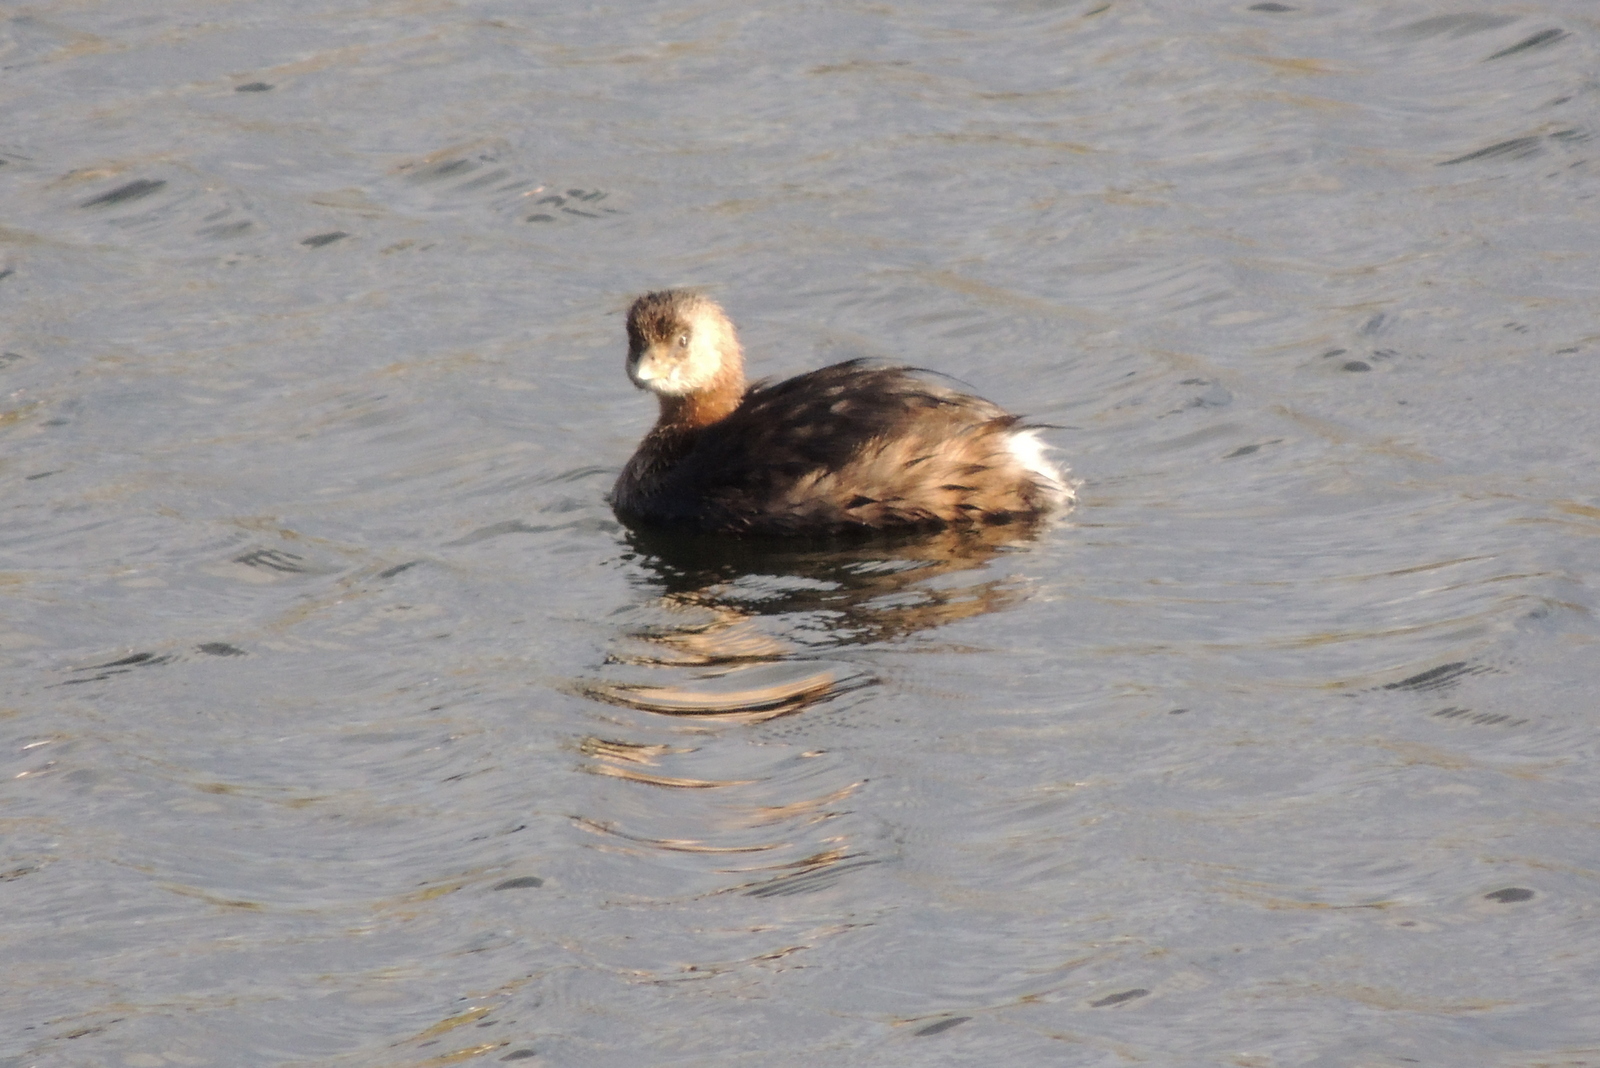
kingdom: Animalia
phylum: Chordata
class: Aves
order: Podicipediformes
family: Podicipedidae
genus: Podilymbus
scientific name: Podilymbus podiceps
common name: Pied-billed grebe
